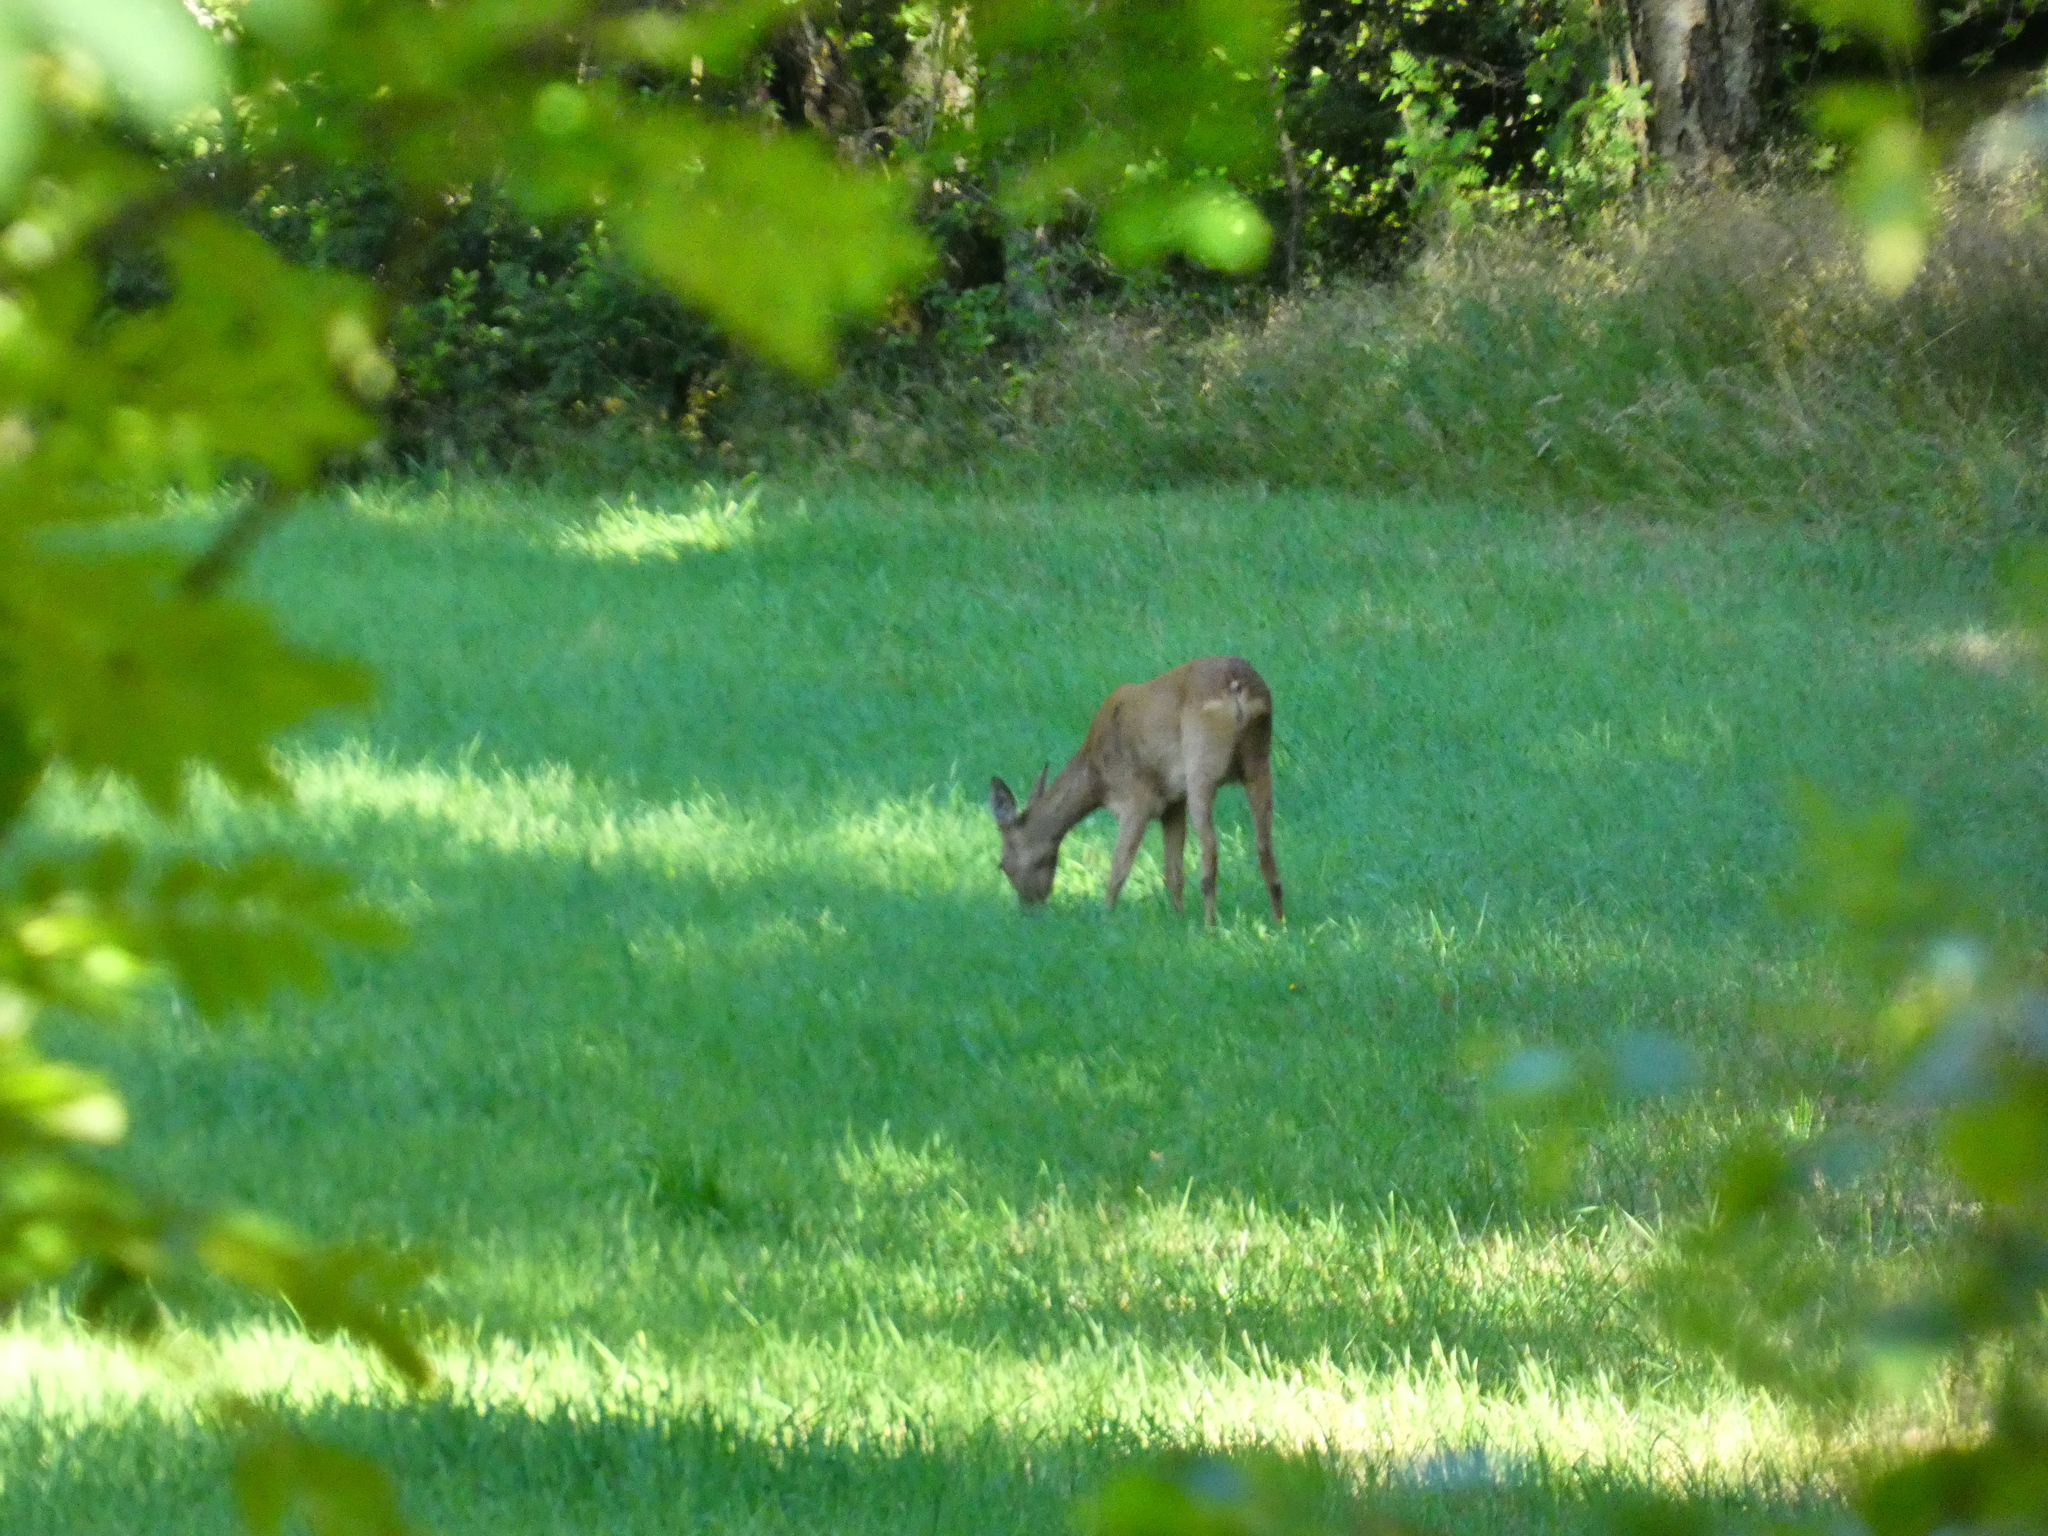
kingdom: Animalia
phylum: Chordata
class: Mammalia
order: Artiodactyla
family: Cervidae
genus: Capreolus
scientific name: Capreolus capreolus
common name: Western roe deer
